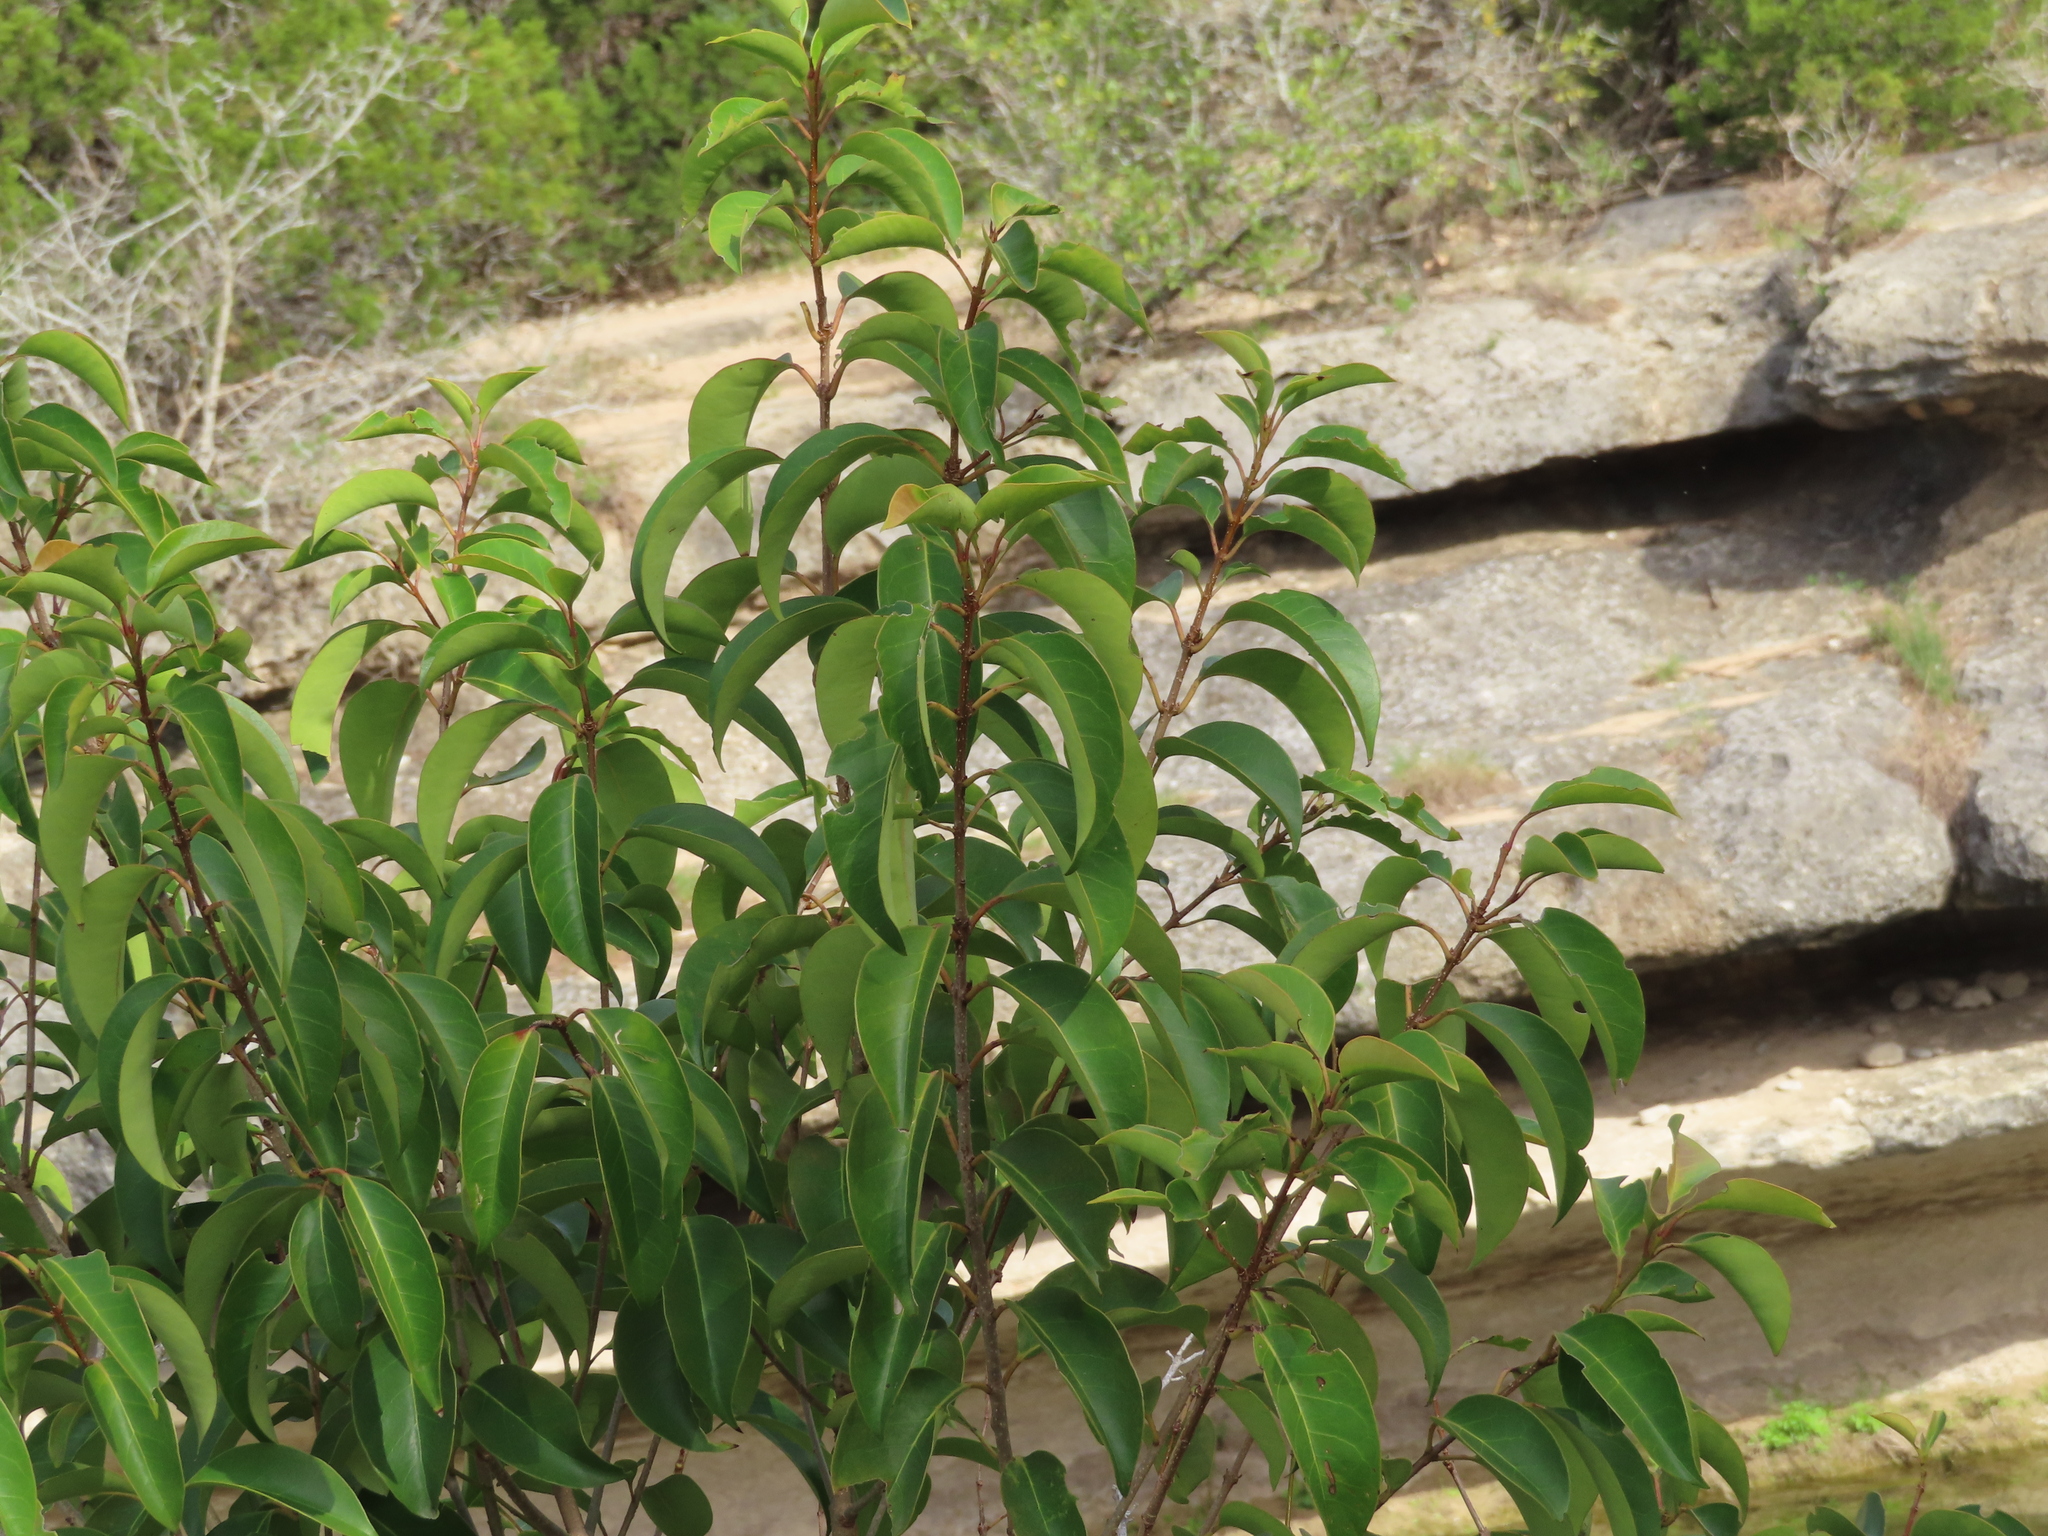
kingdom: Plantae
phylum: Tracheophyta
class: Magnoliopsida
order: Lamiales
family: Oleaceae
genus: Ligustrum
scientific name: Ligustrum lucidum
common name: Glossy privet
